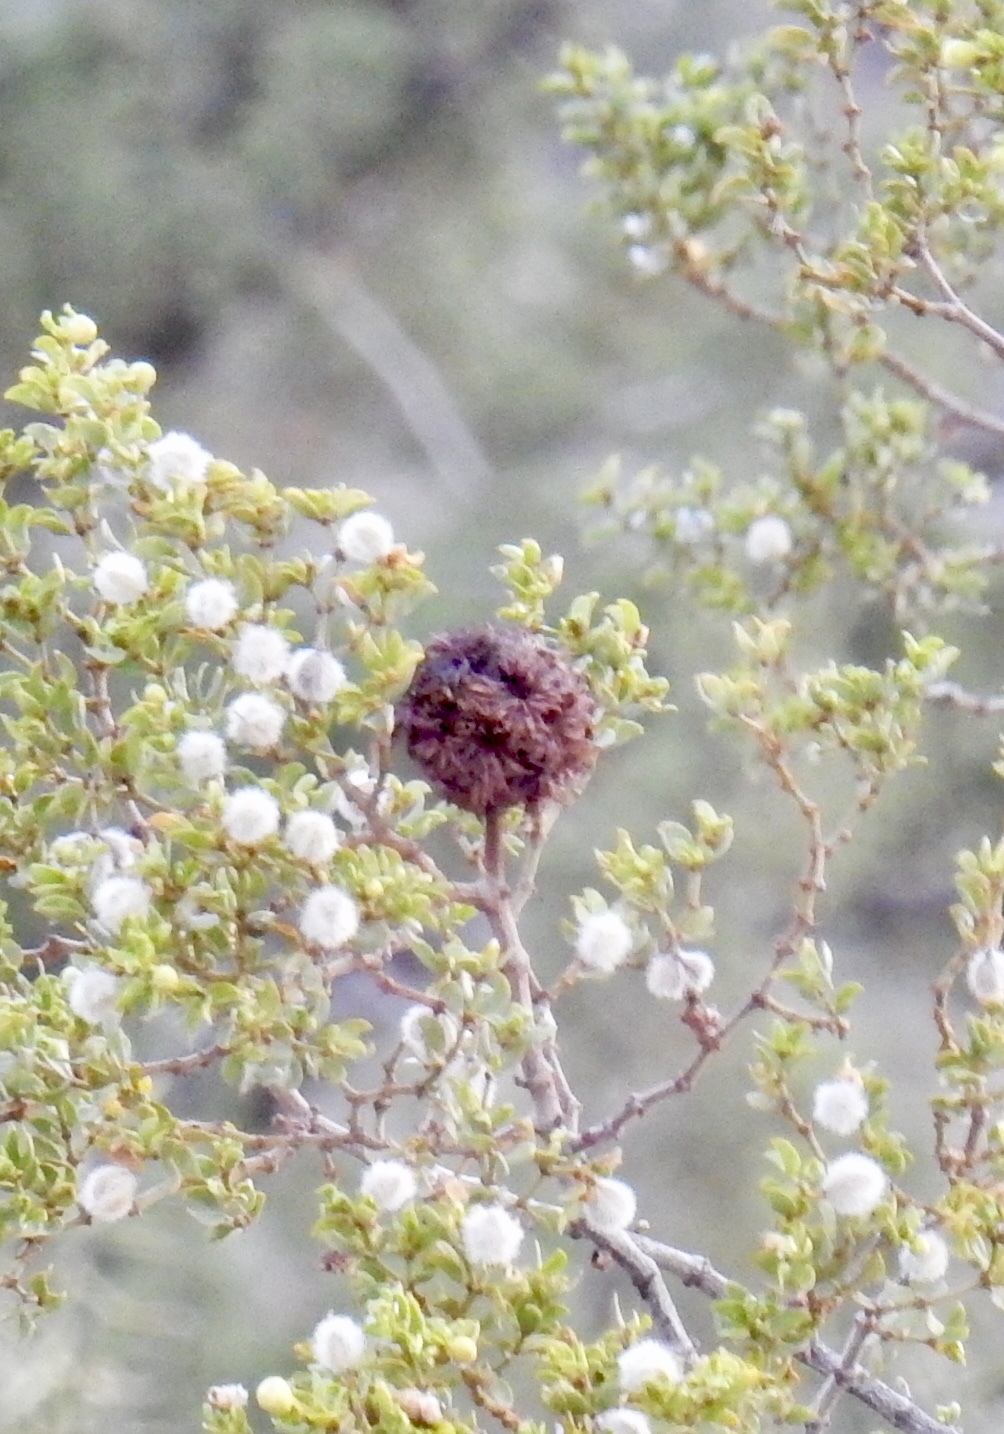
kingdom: Animalia
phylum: Arthropoda
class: Insecta
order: Diptera
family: Cecidomyiidae
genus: Asphondylia
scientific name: Asphondylia auripila
